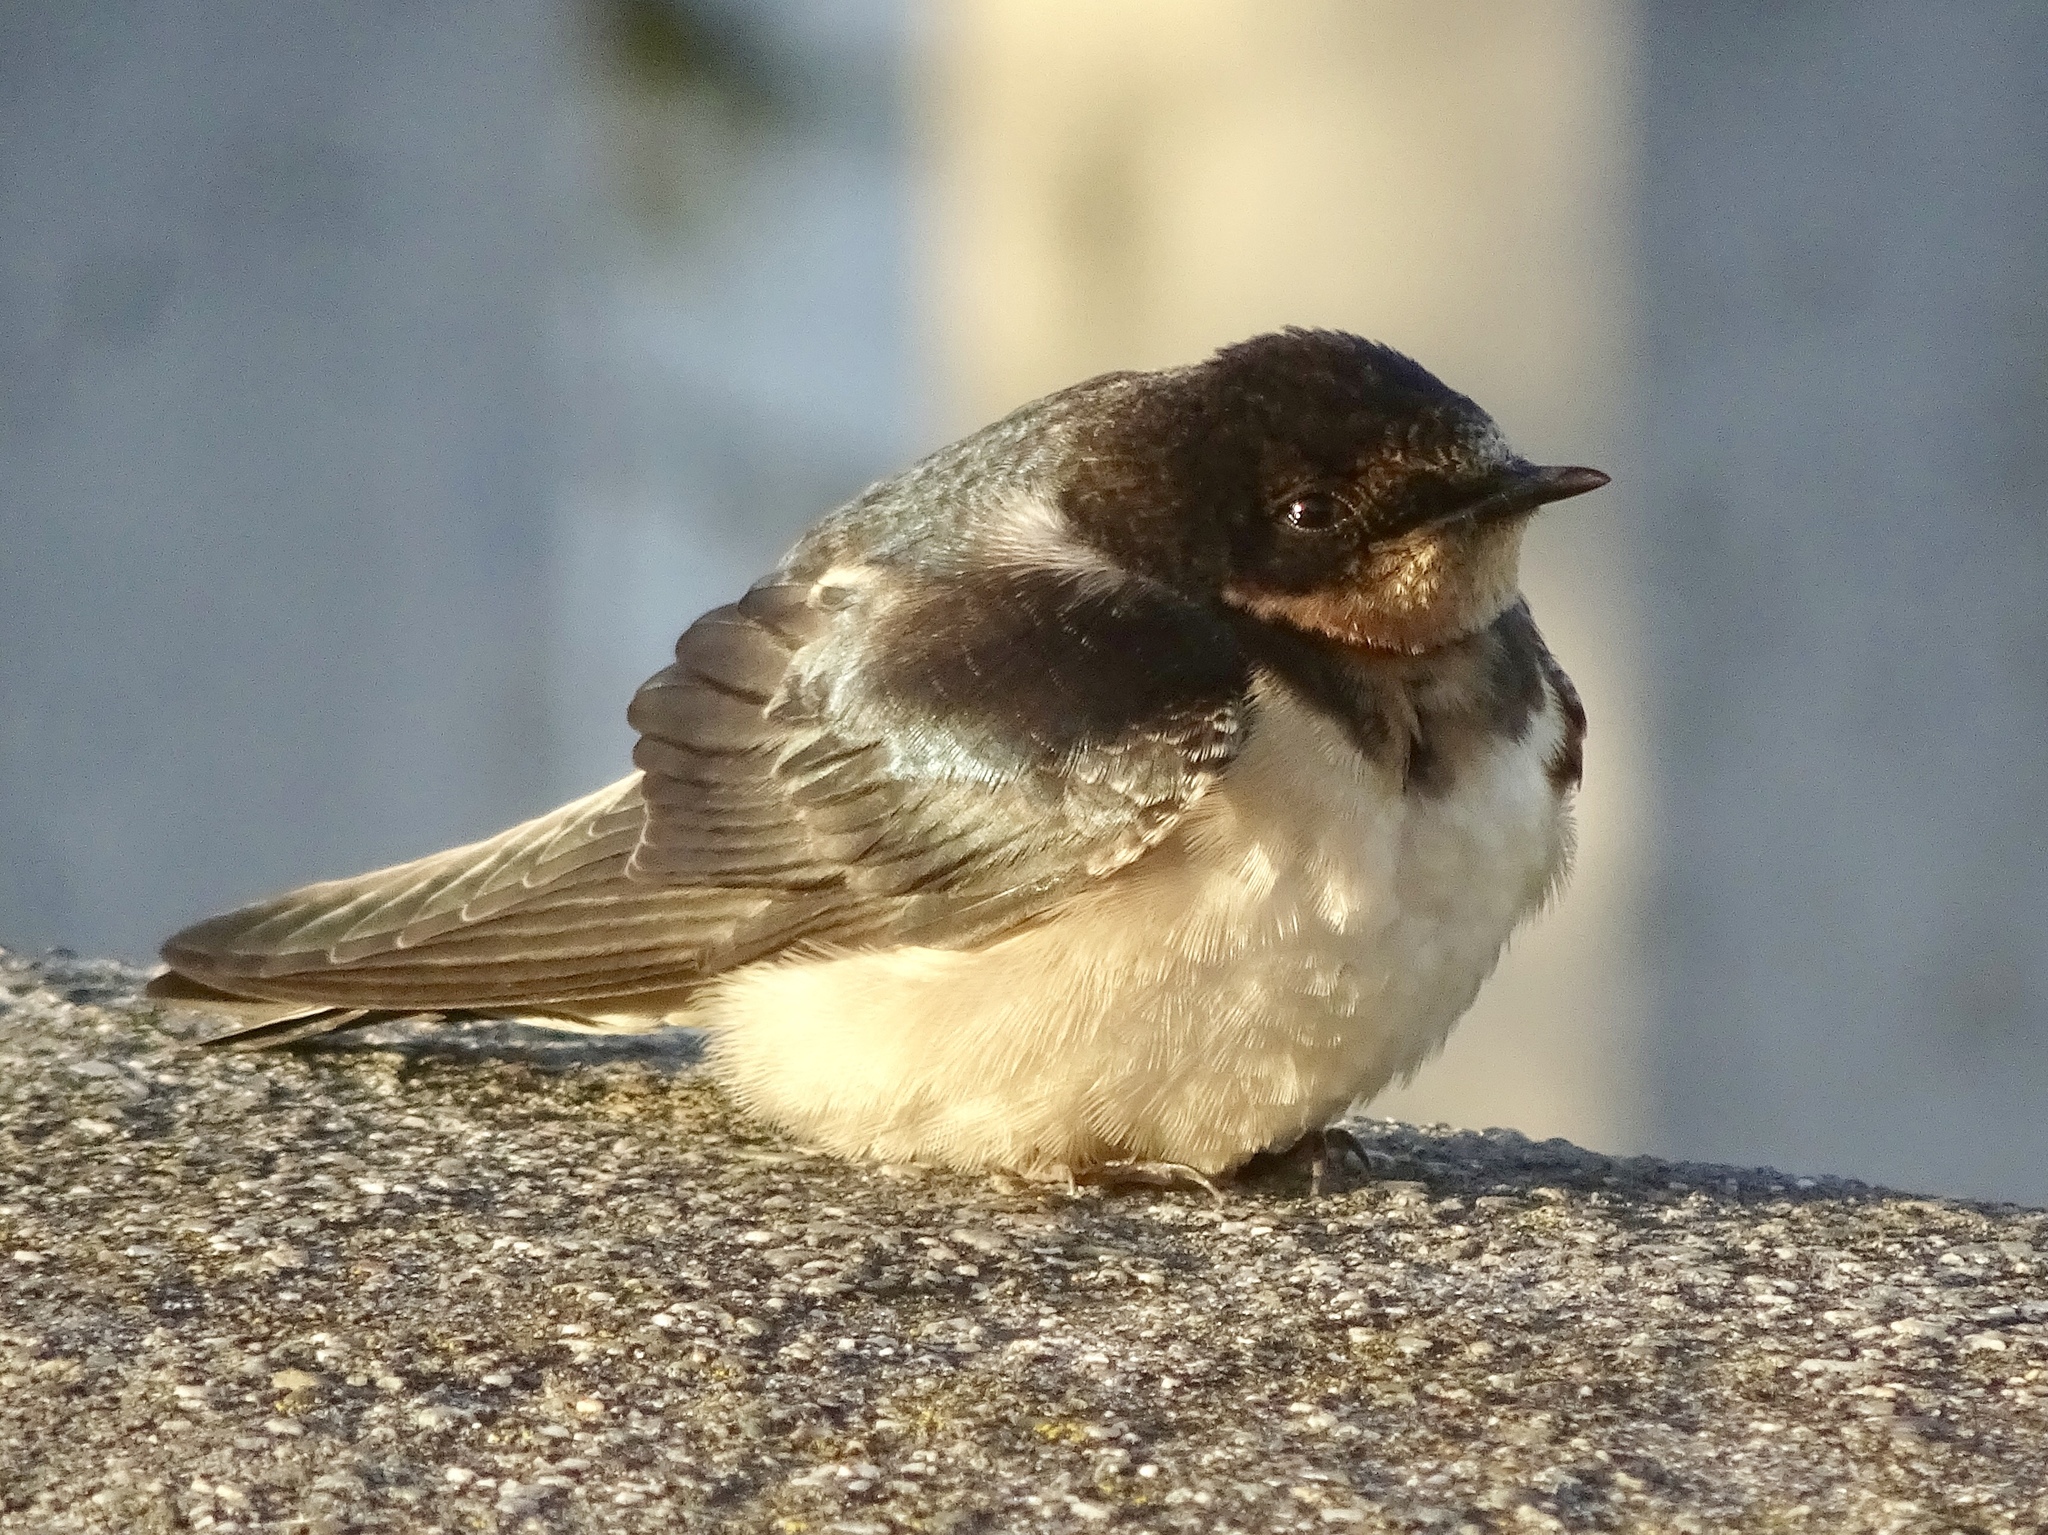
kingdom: Animalia
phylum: Chordata
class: Aves
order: Passeriformes
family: Hirundinidae
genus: Hirundo
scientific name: Hirundo rustica
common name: Barn swallow
